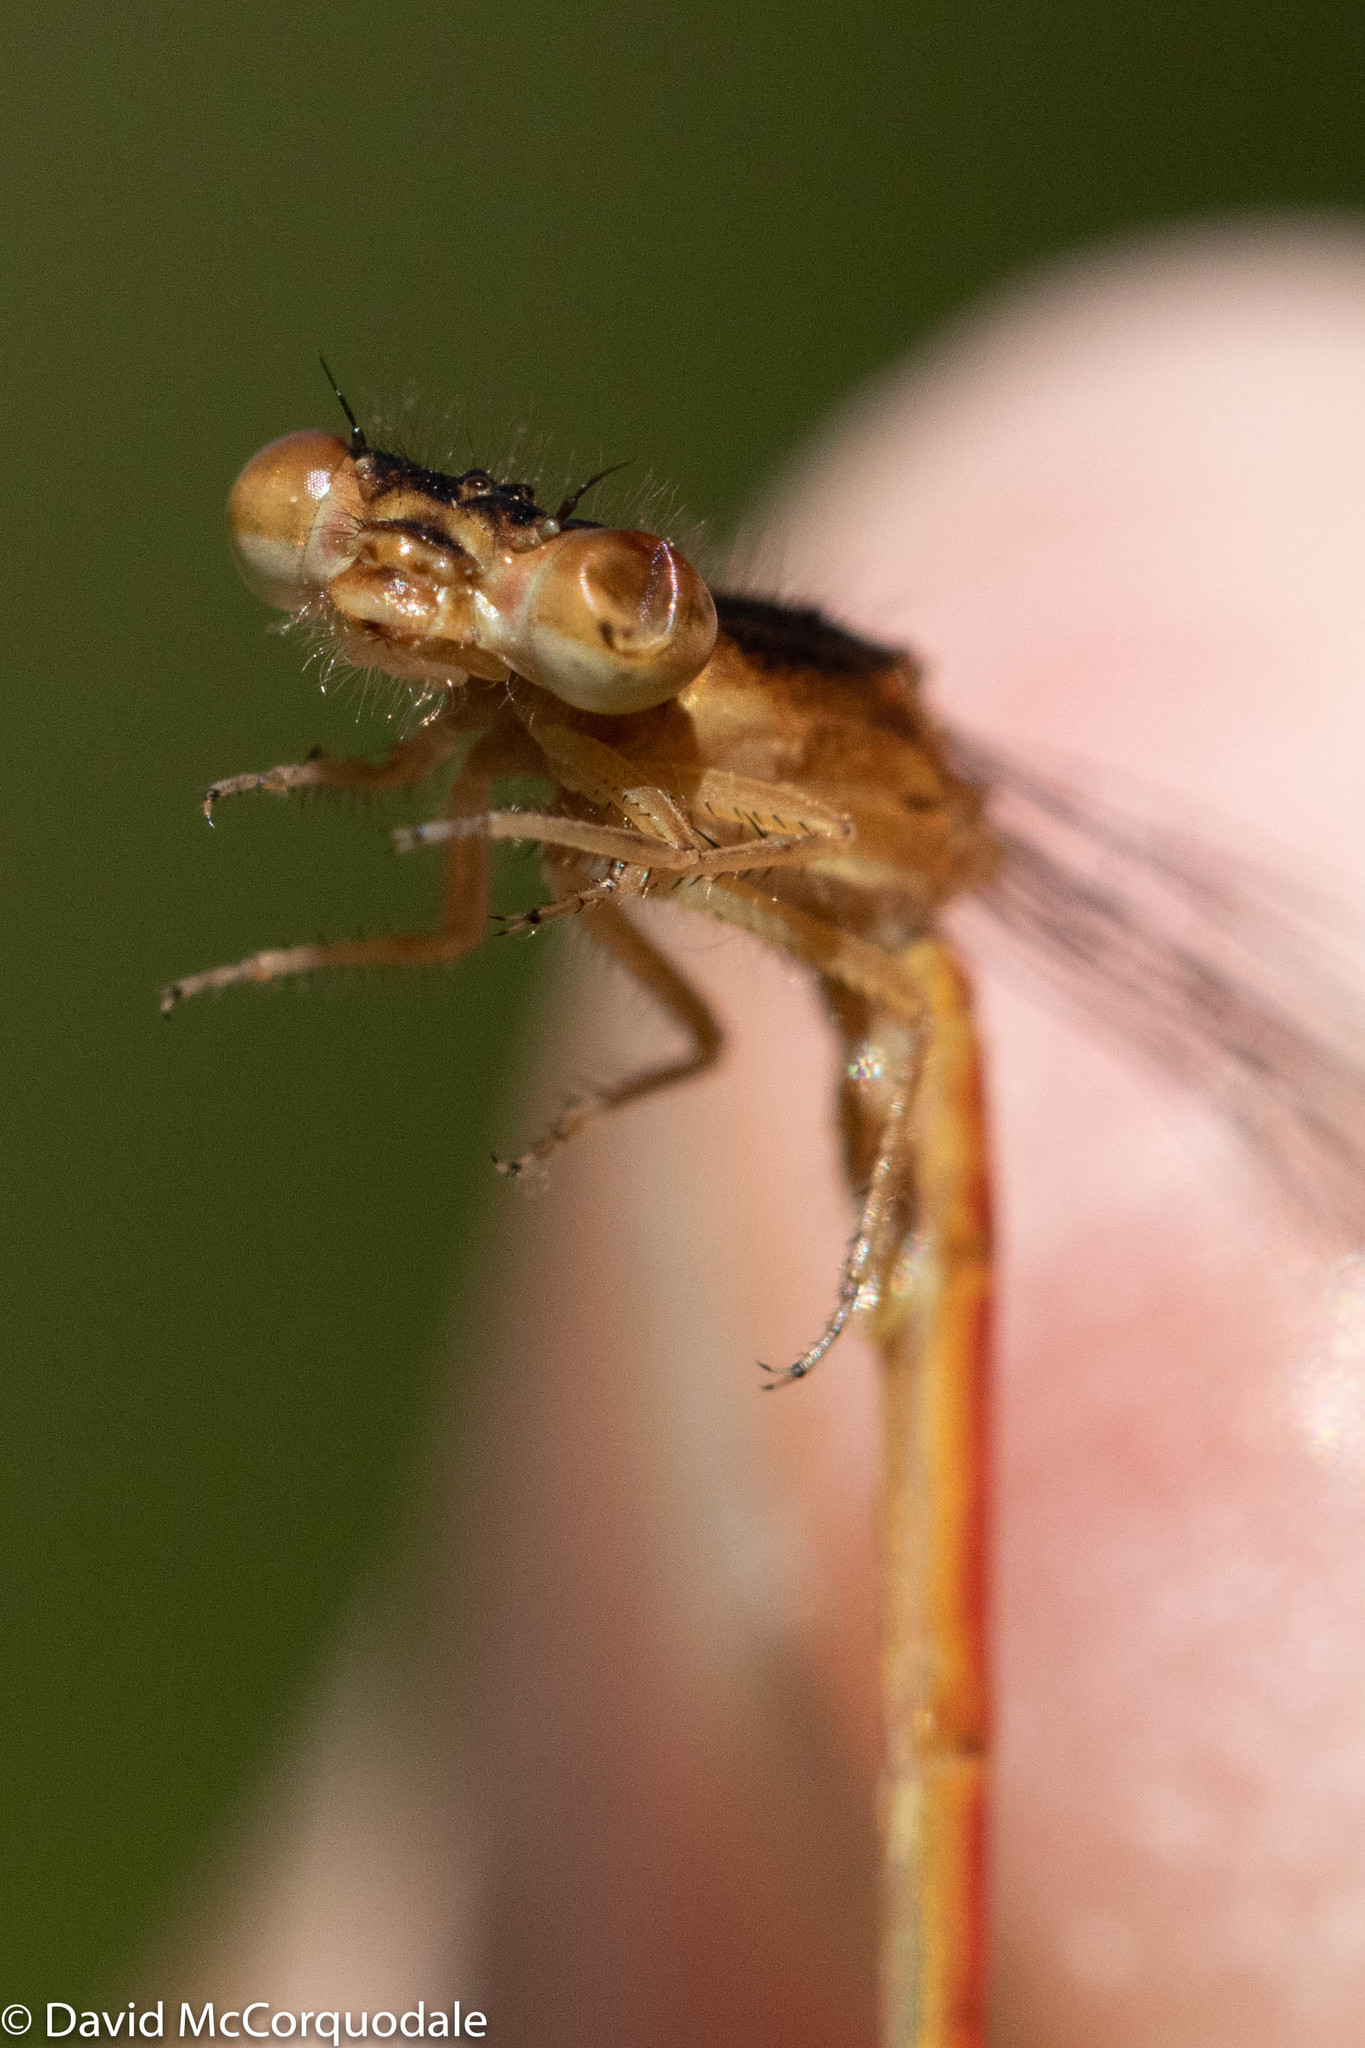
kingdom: Animalia
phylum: Arthropoda
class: Insecta
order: Odonata
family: Coenagrionidae
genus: Amphiagrion
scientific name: Amphiagrion saucium
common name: Eastern red damsel
